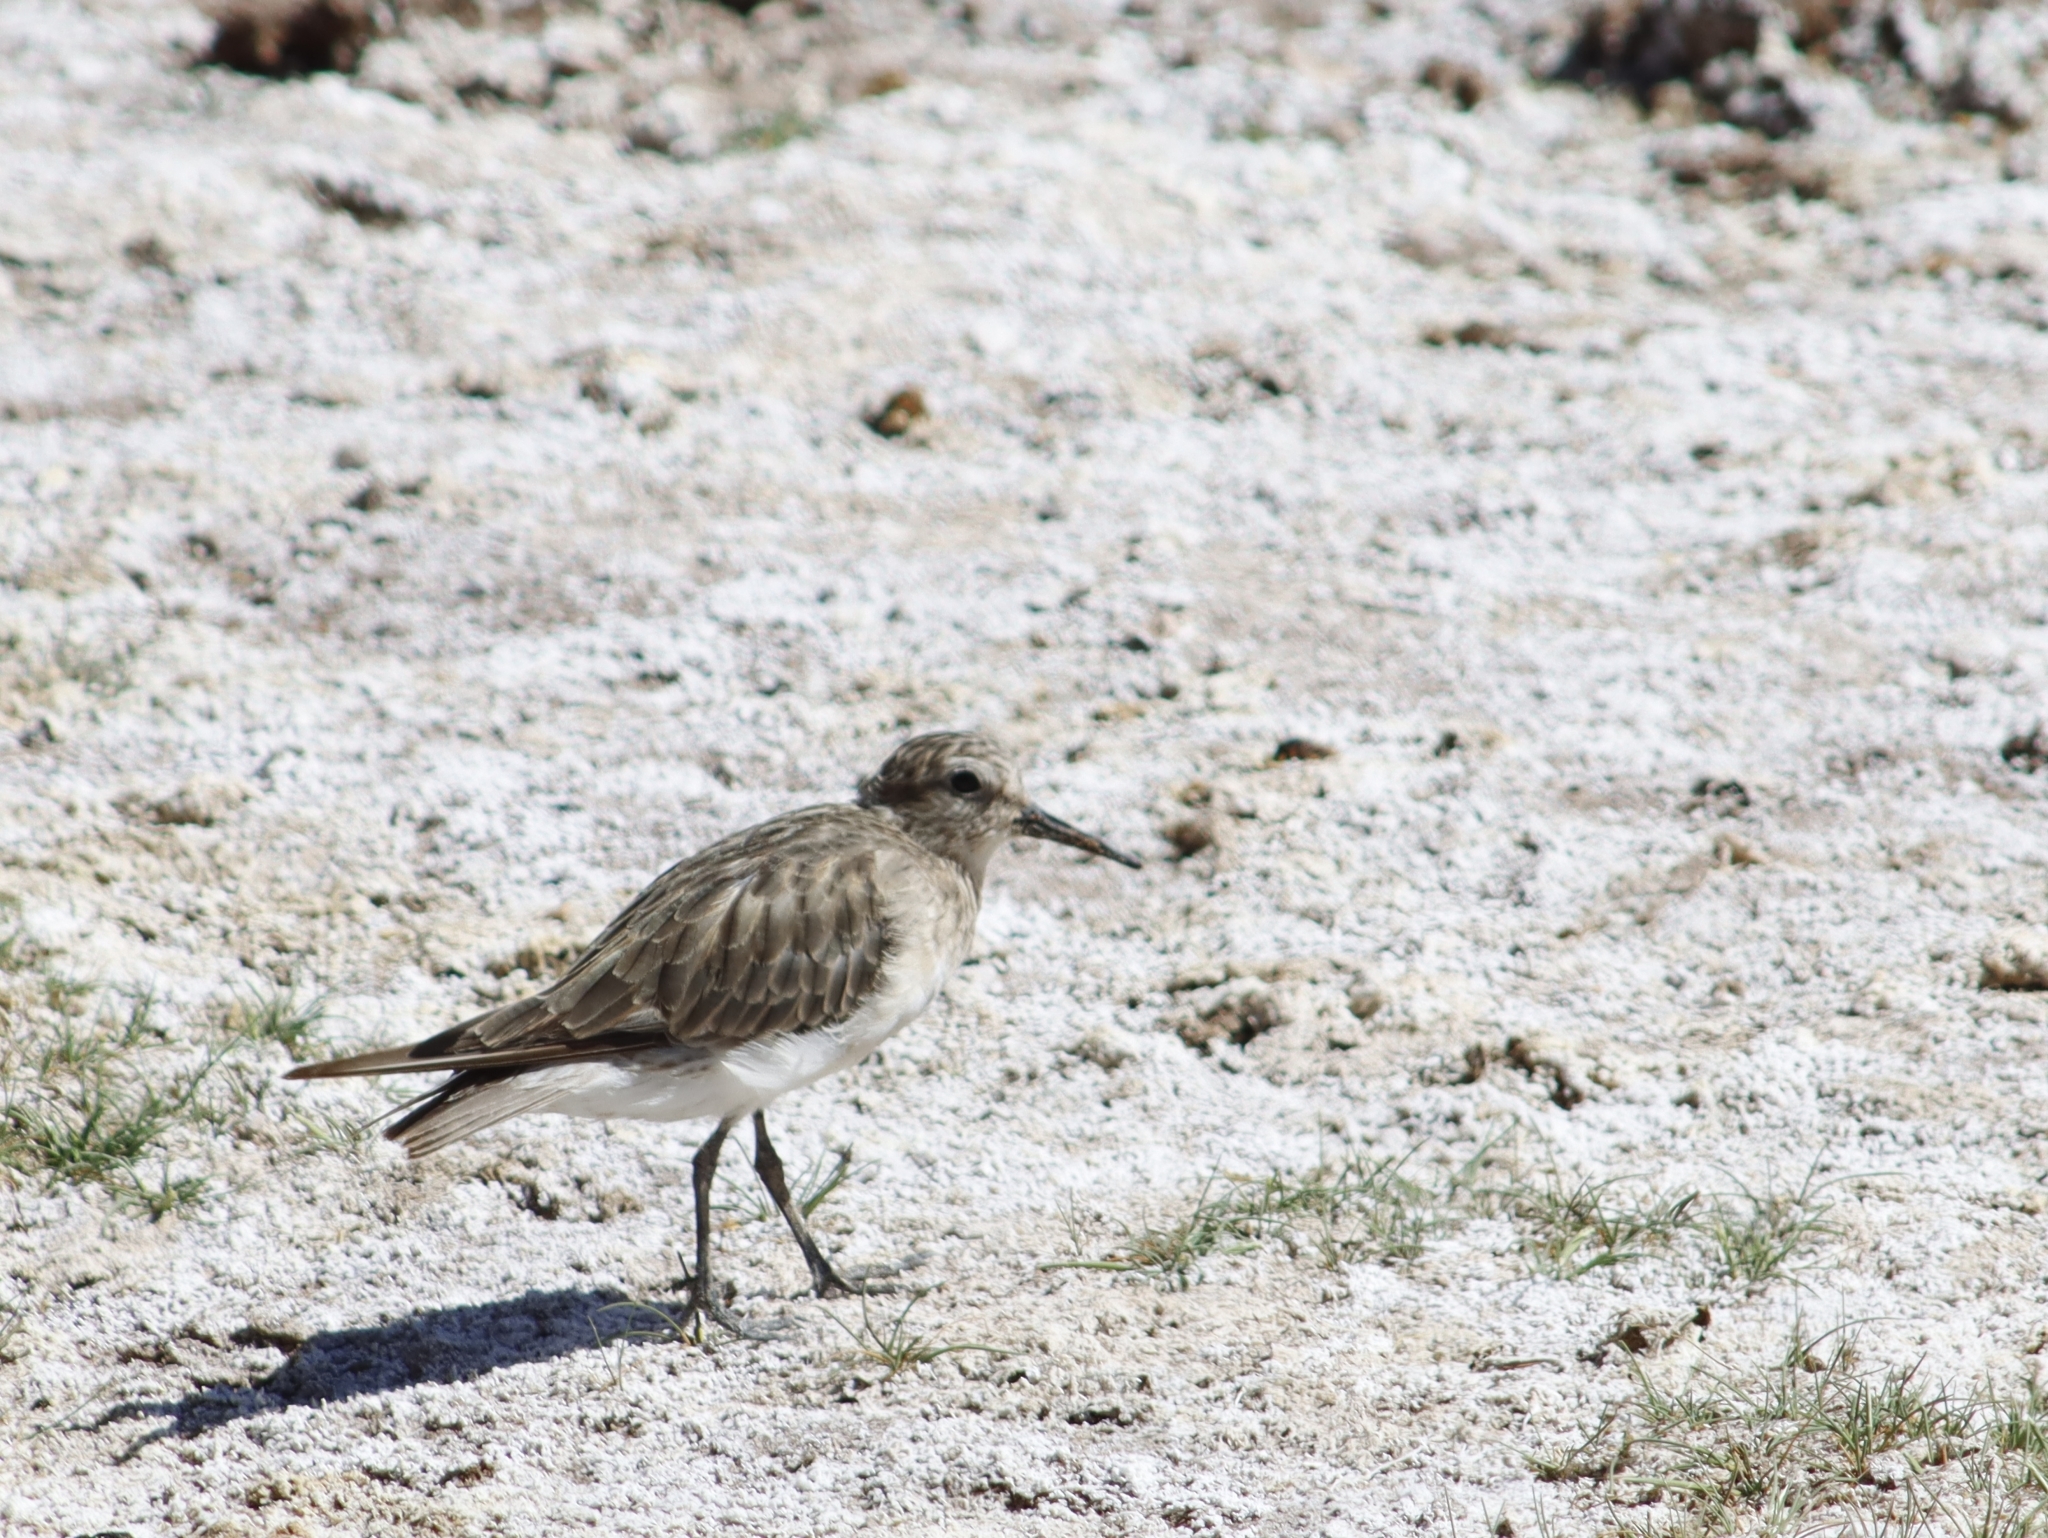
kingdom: Animalia
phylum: Chordata
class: Aves
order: Charadriiformes
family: Scolopacidae
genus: Calidris
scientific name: Calidris bairdii
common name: Baird's sandpiper
